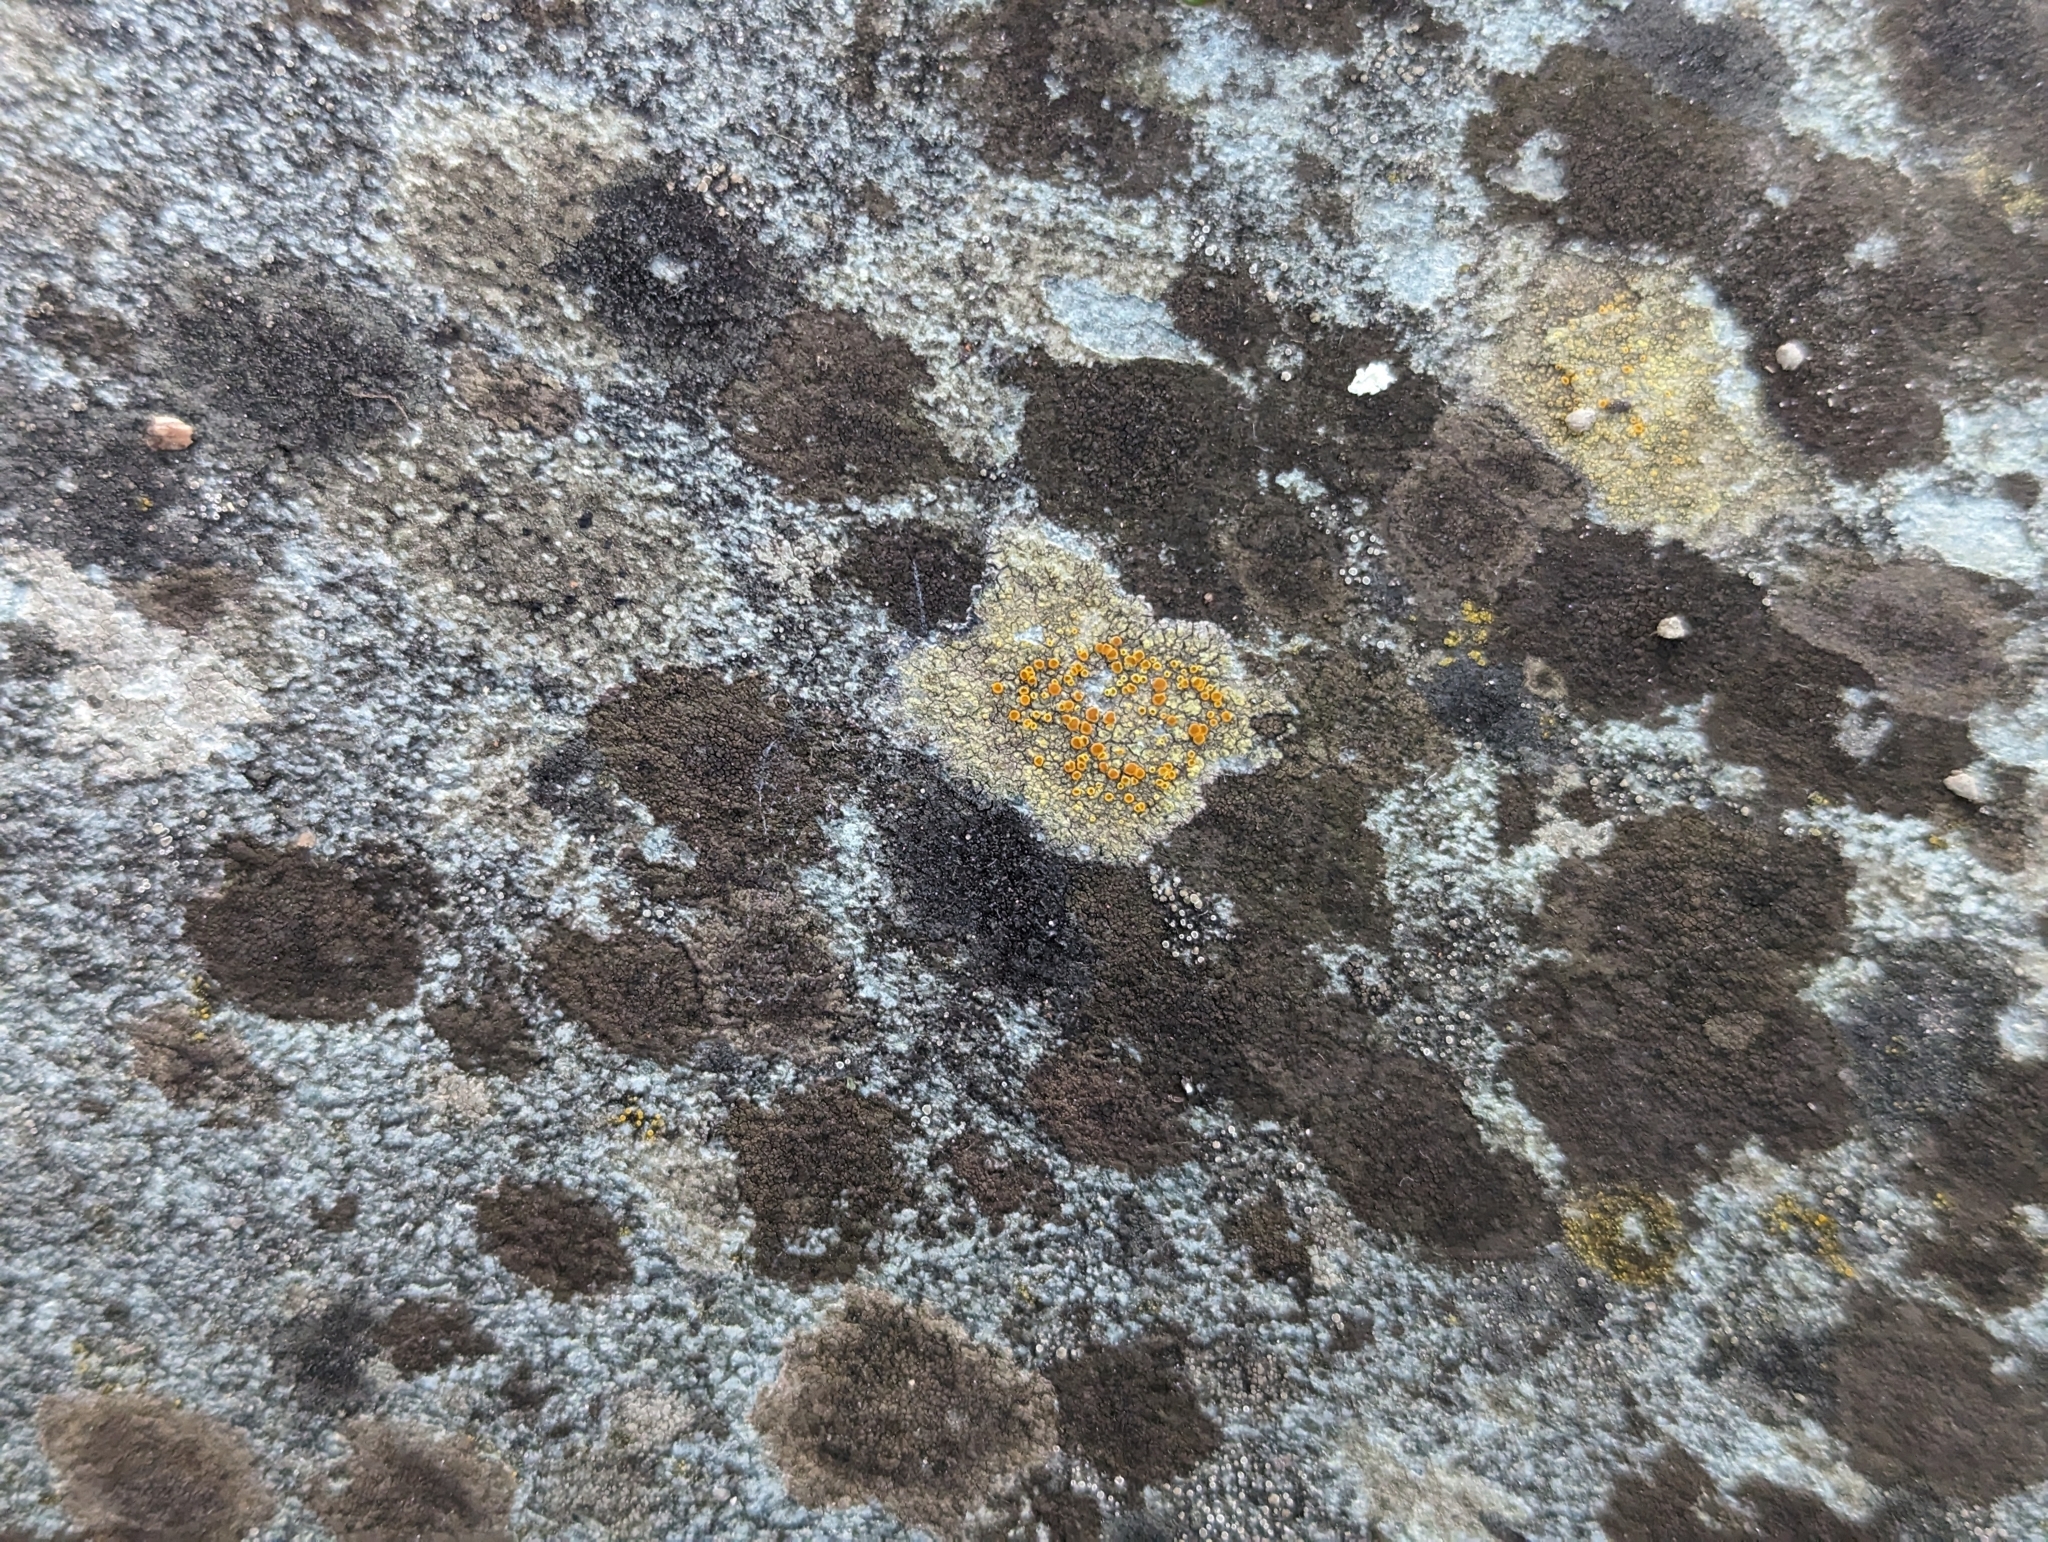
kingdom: Fungi
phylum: Ascomycota
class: Lecanoromycetes
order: Teloschistales
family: Teloschistaceae
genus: Gyalolechia
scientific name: Gyalolechia flavovirescens
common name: Sulphur firedot
